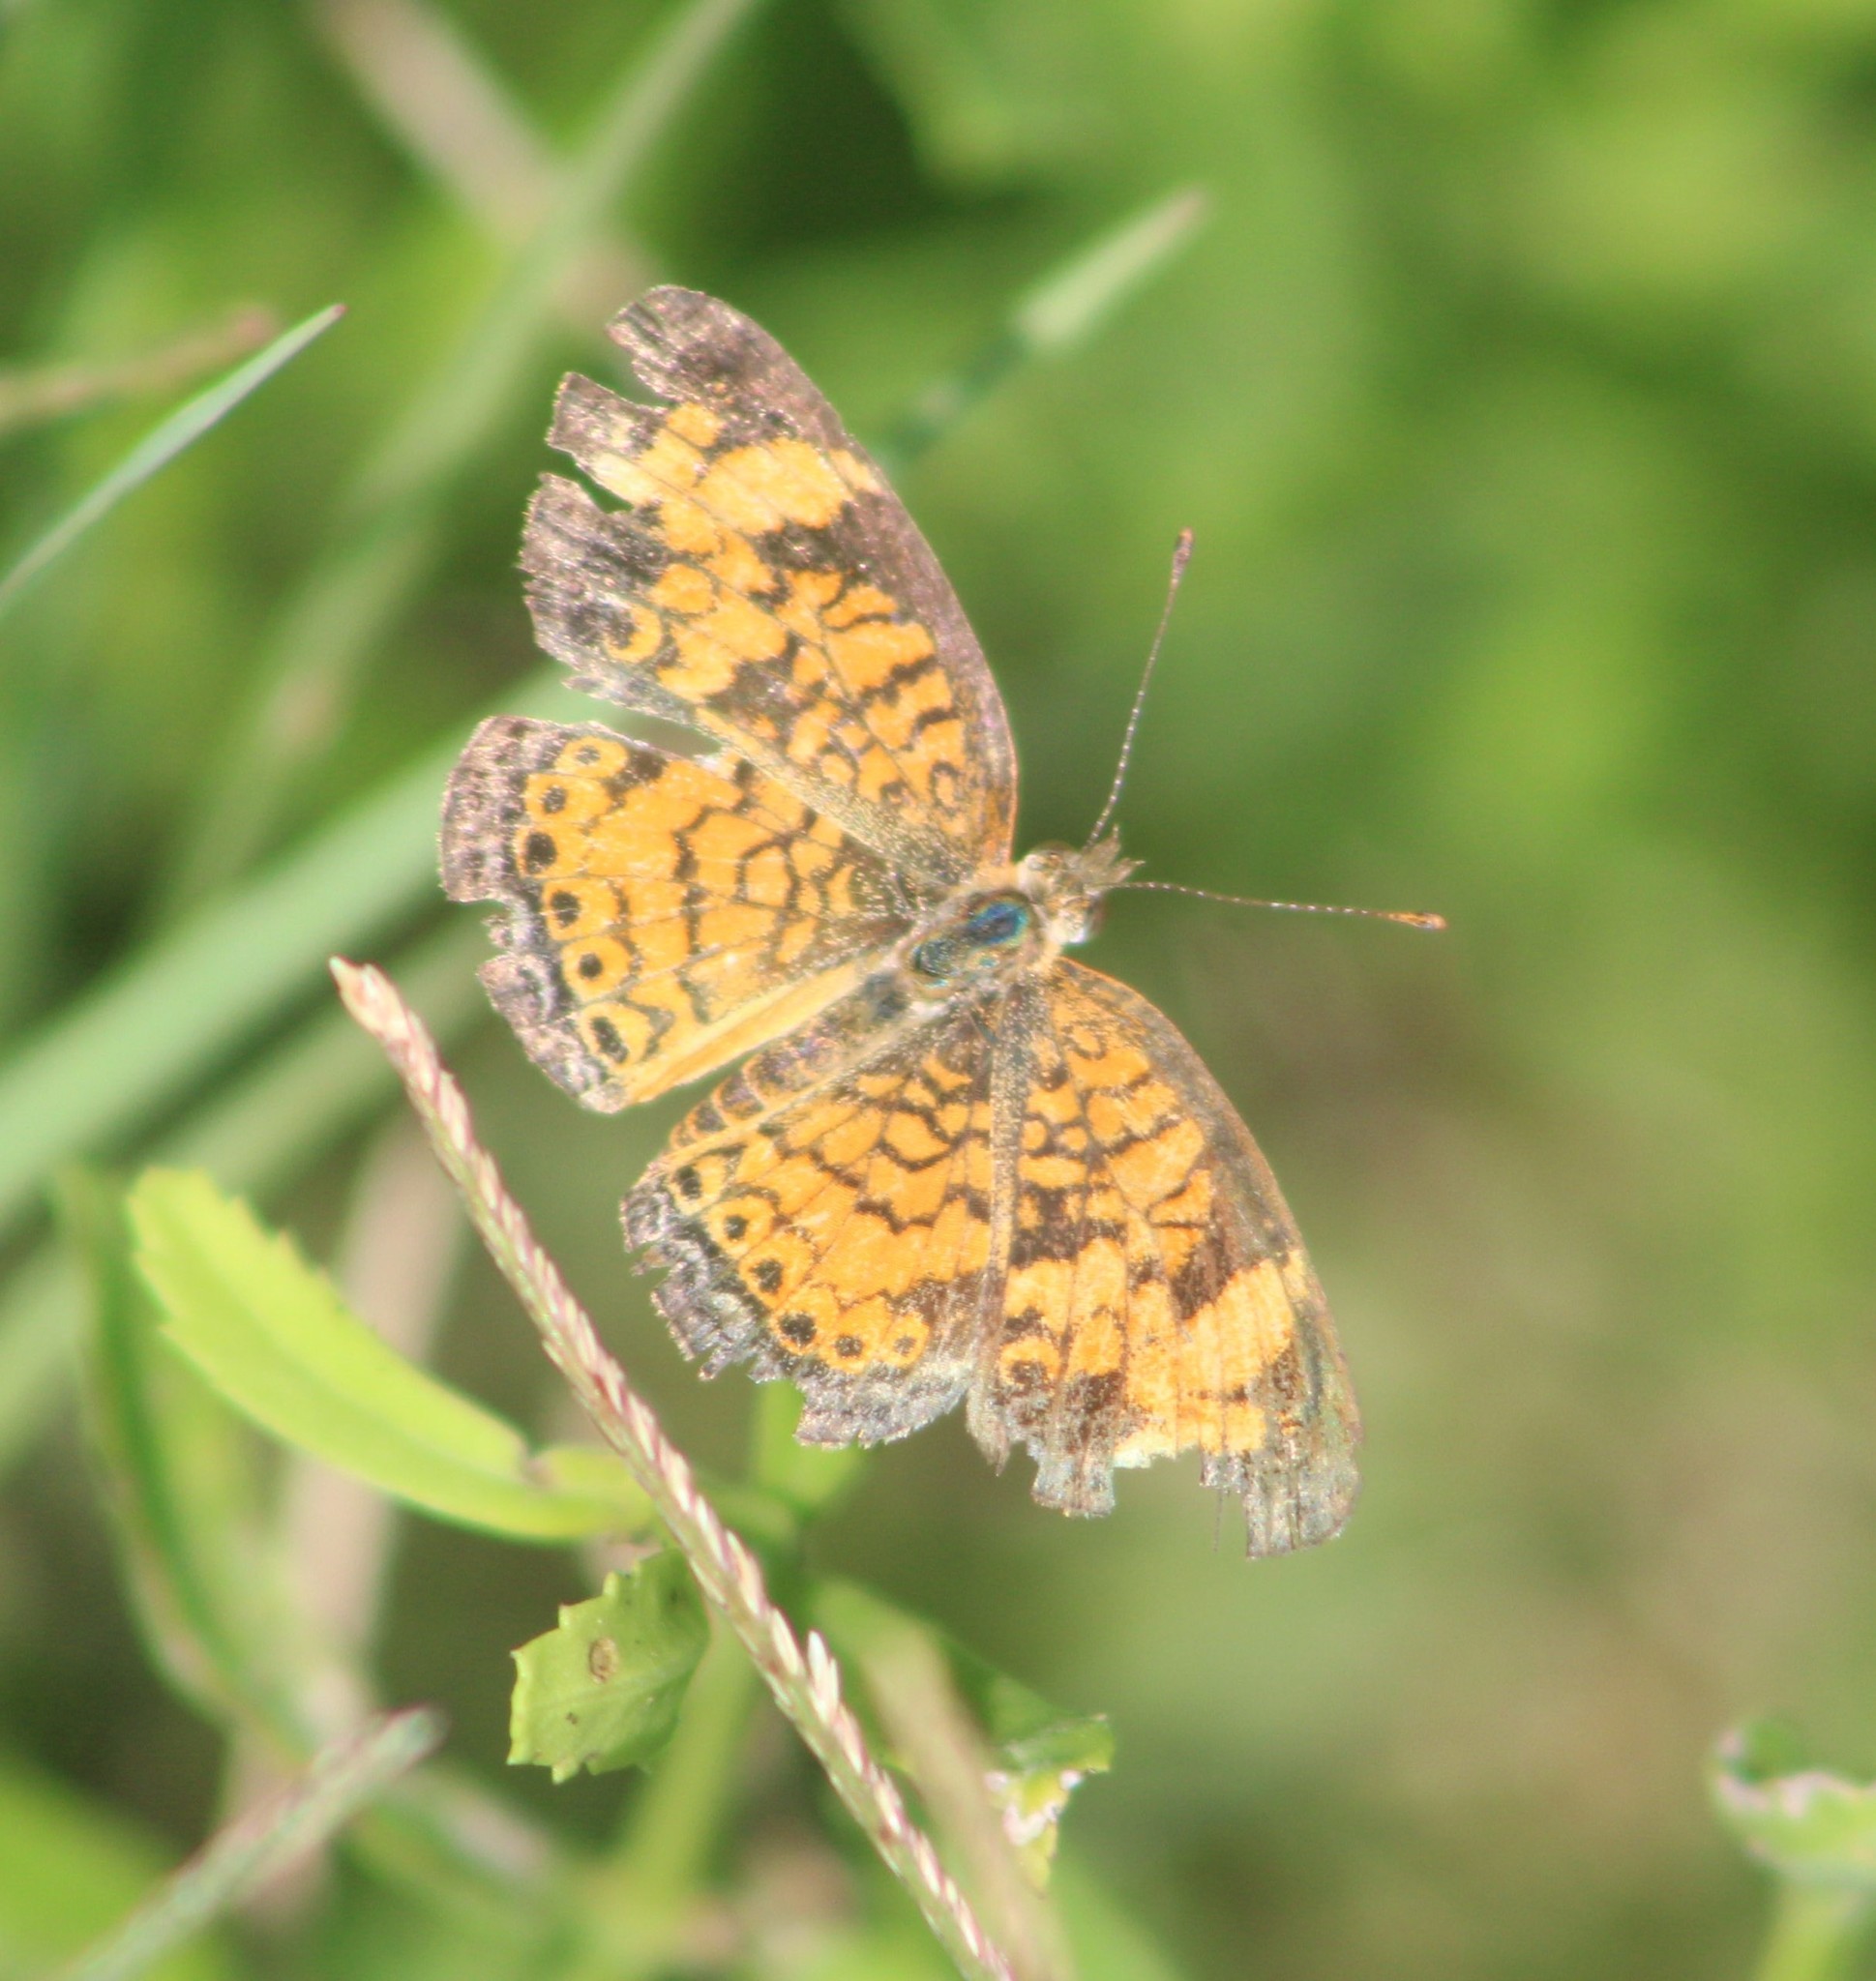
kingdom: Animalia
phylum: Arthropoda
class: Insecta
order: Lepidoptera
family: Nymphalidae
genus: Phyciodes
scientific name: Phyciodes tharos
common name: Pearl crescent
